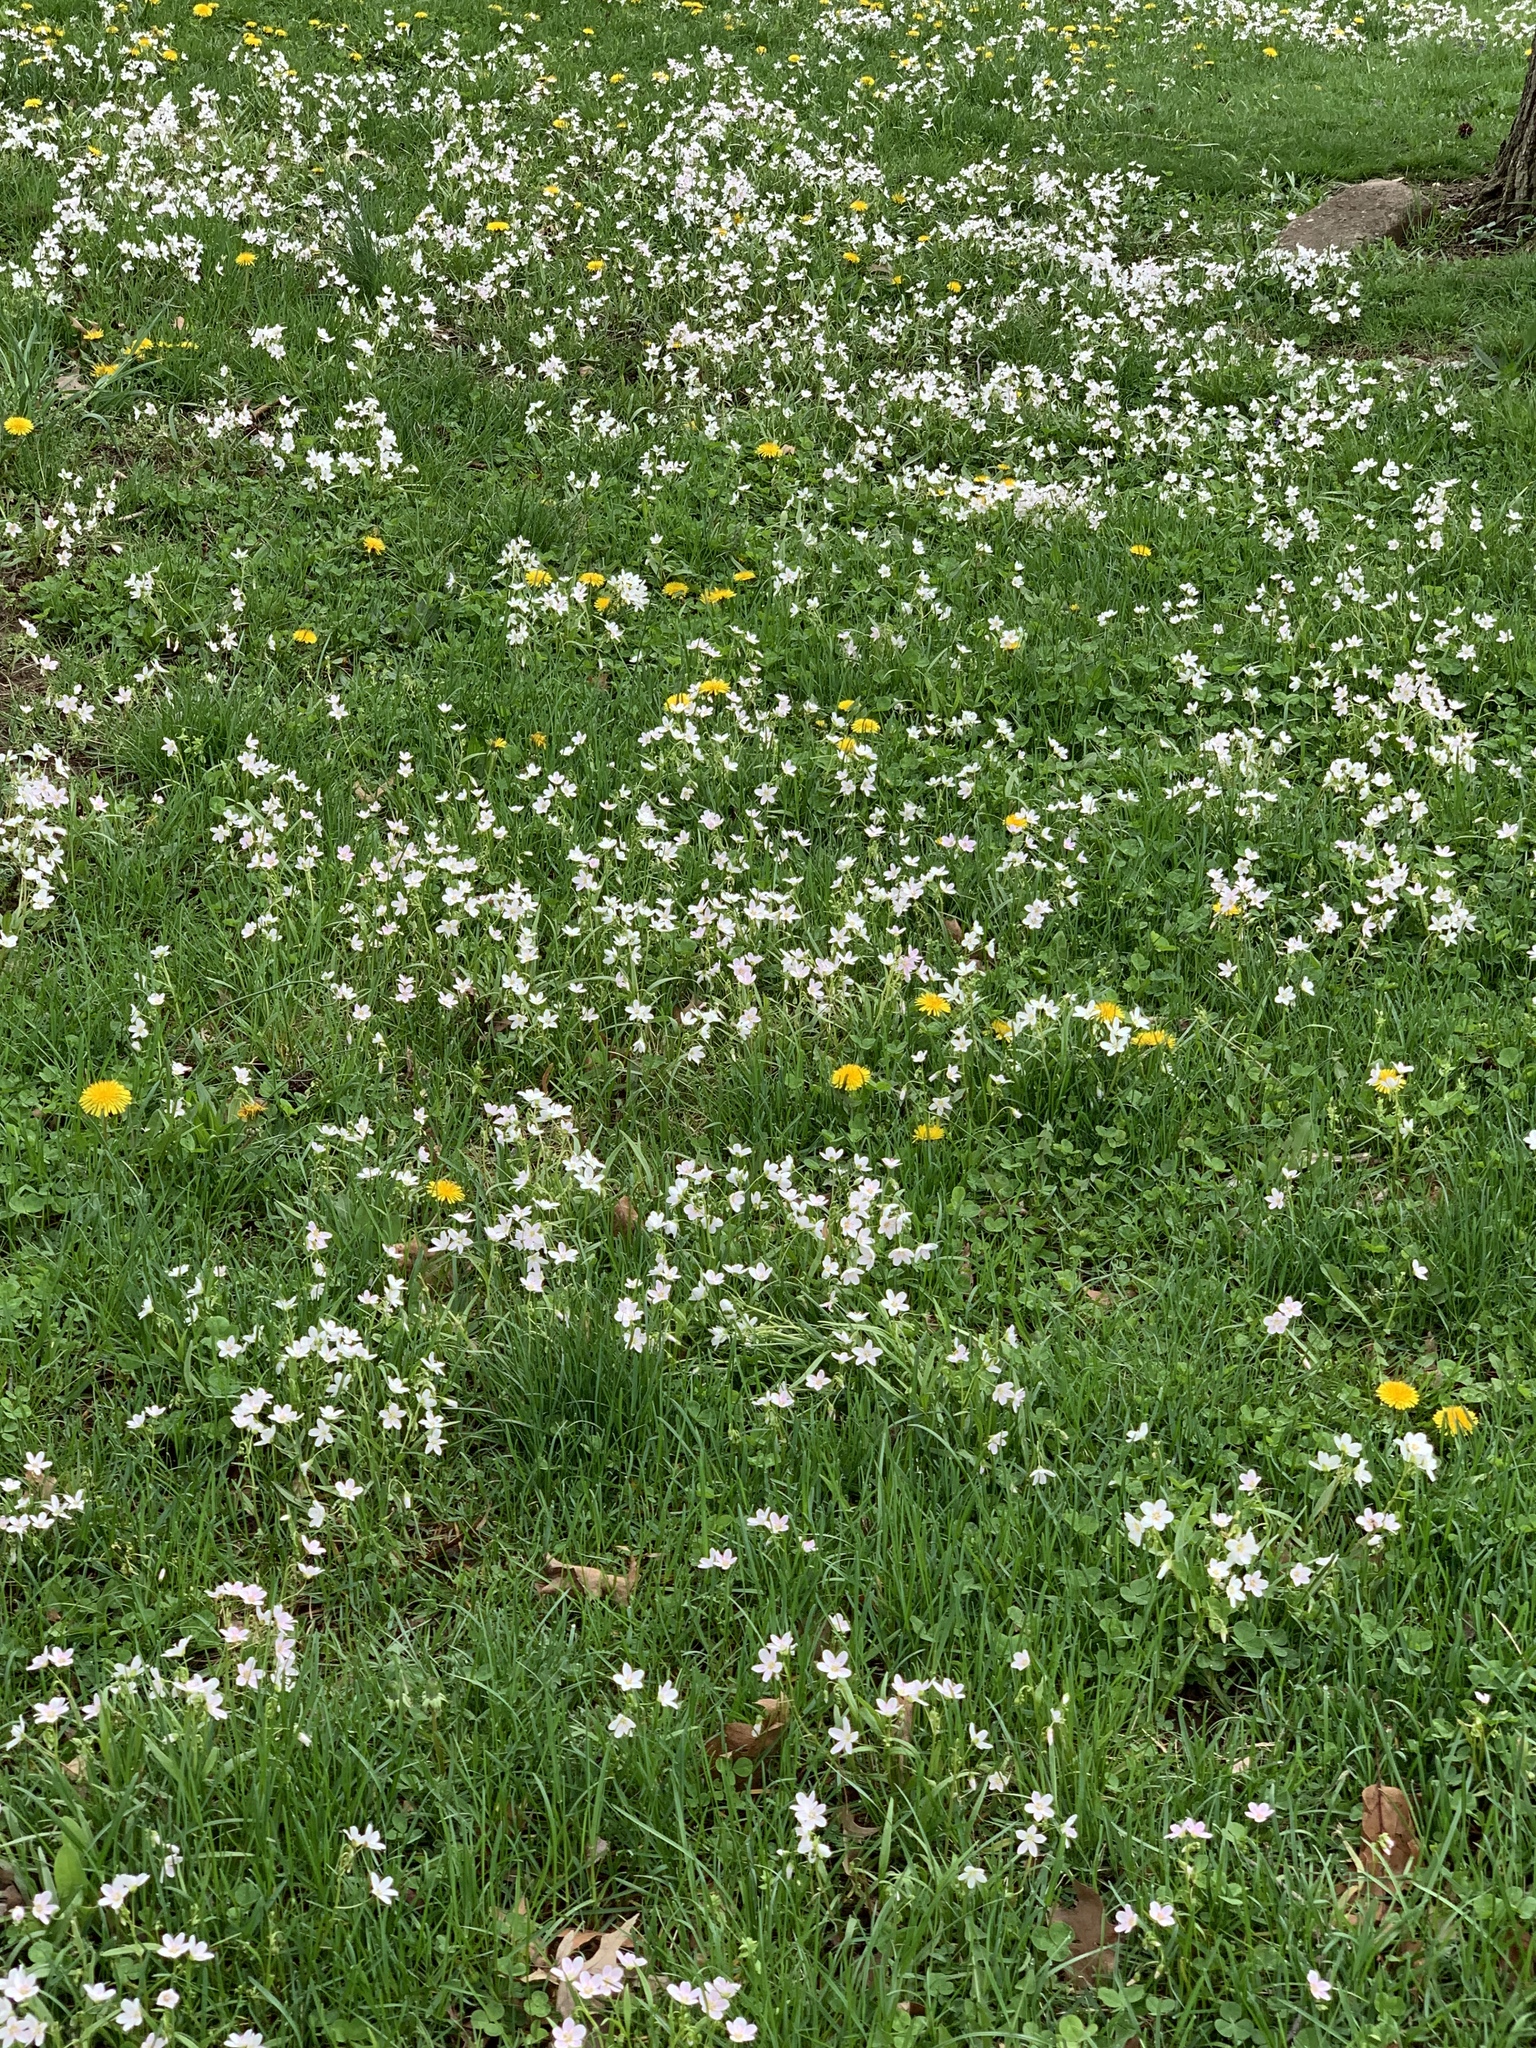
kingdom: Plantae
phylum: Tracheophyta
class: Magnoliopsida
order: Caryophyllales
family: Montiaceae
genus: Claytonia
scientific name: Claytonia virginica
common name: Virginia springbeauty
